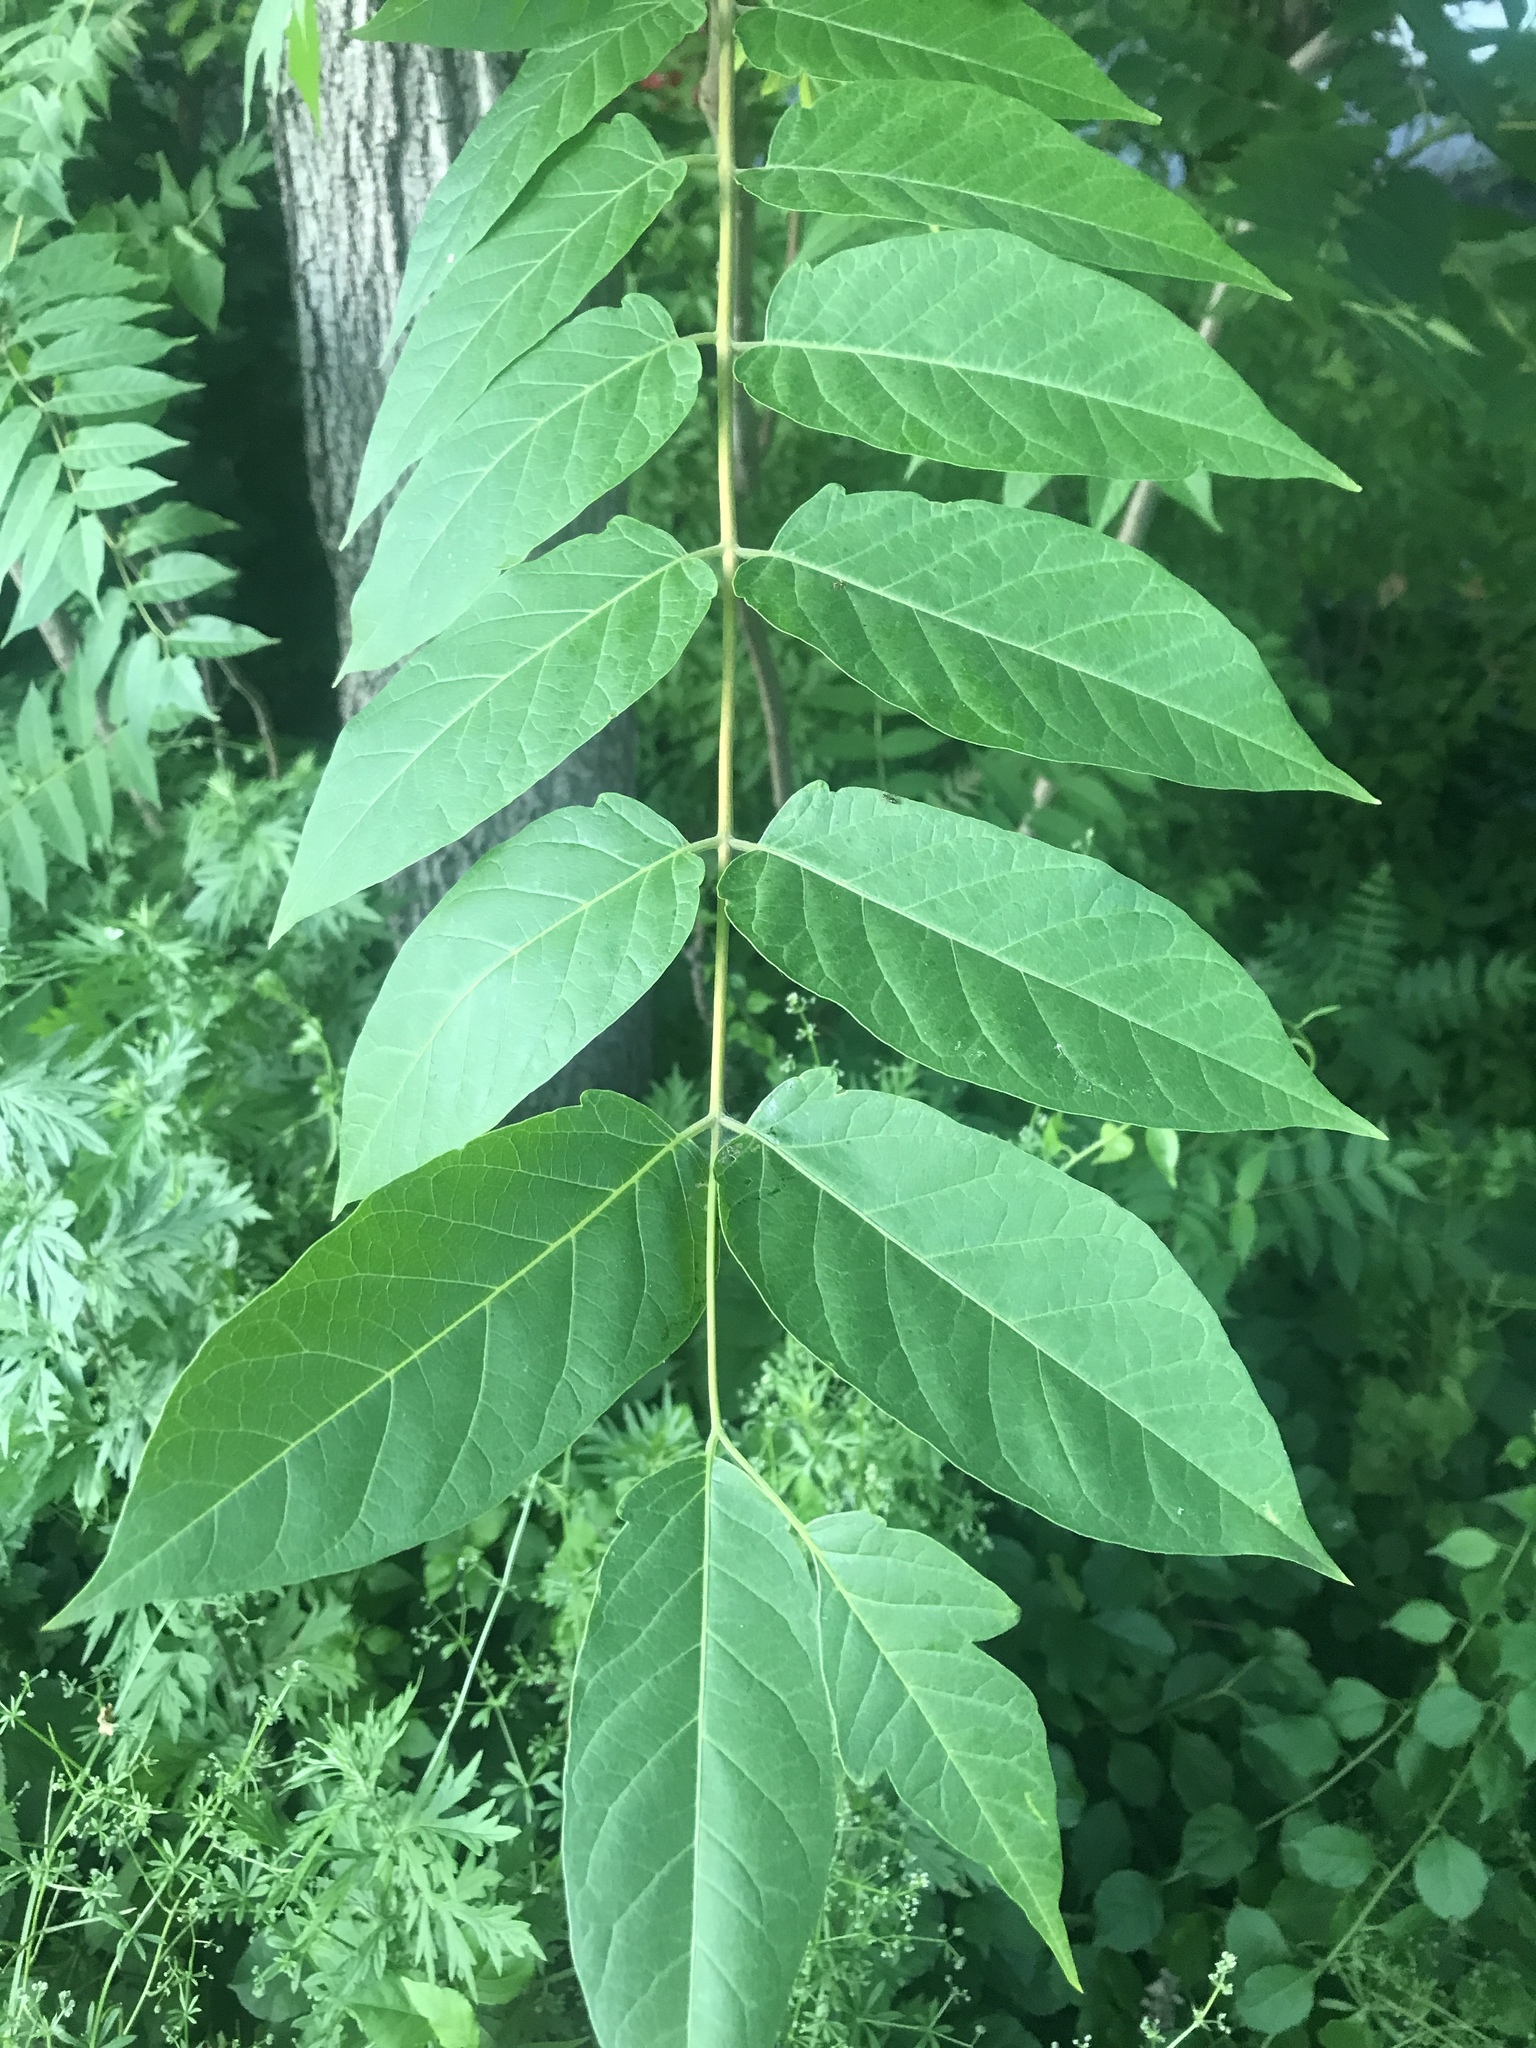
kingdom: Plantae
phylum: Tracheophyta
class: Magnoliopsida
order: Sapindales
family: Simaroubaceae
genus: Ailanthus
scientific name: Ailanthus altissima
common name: Tree-of-heaven
